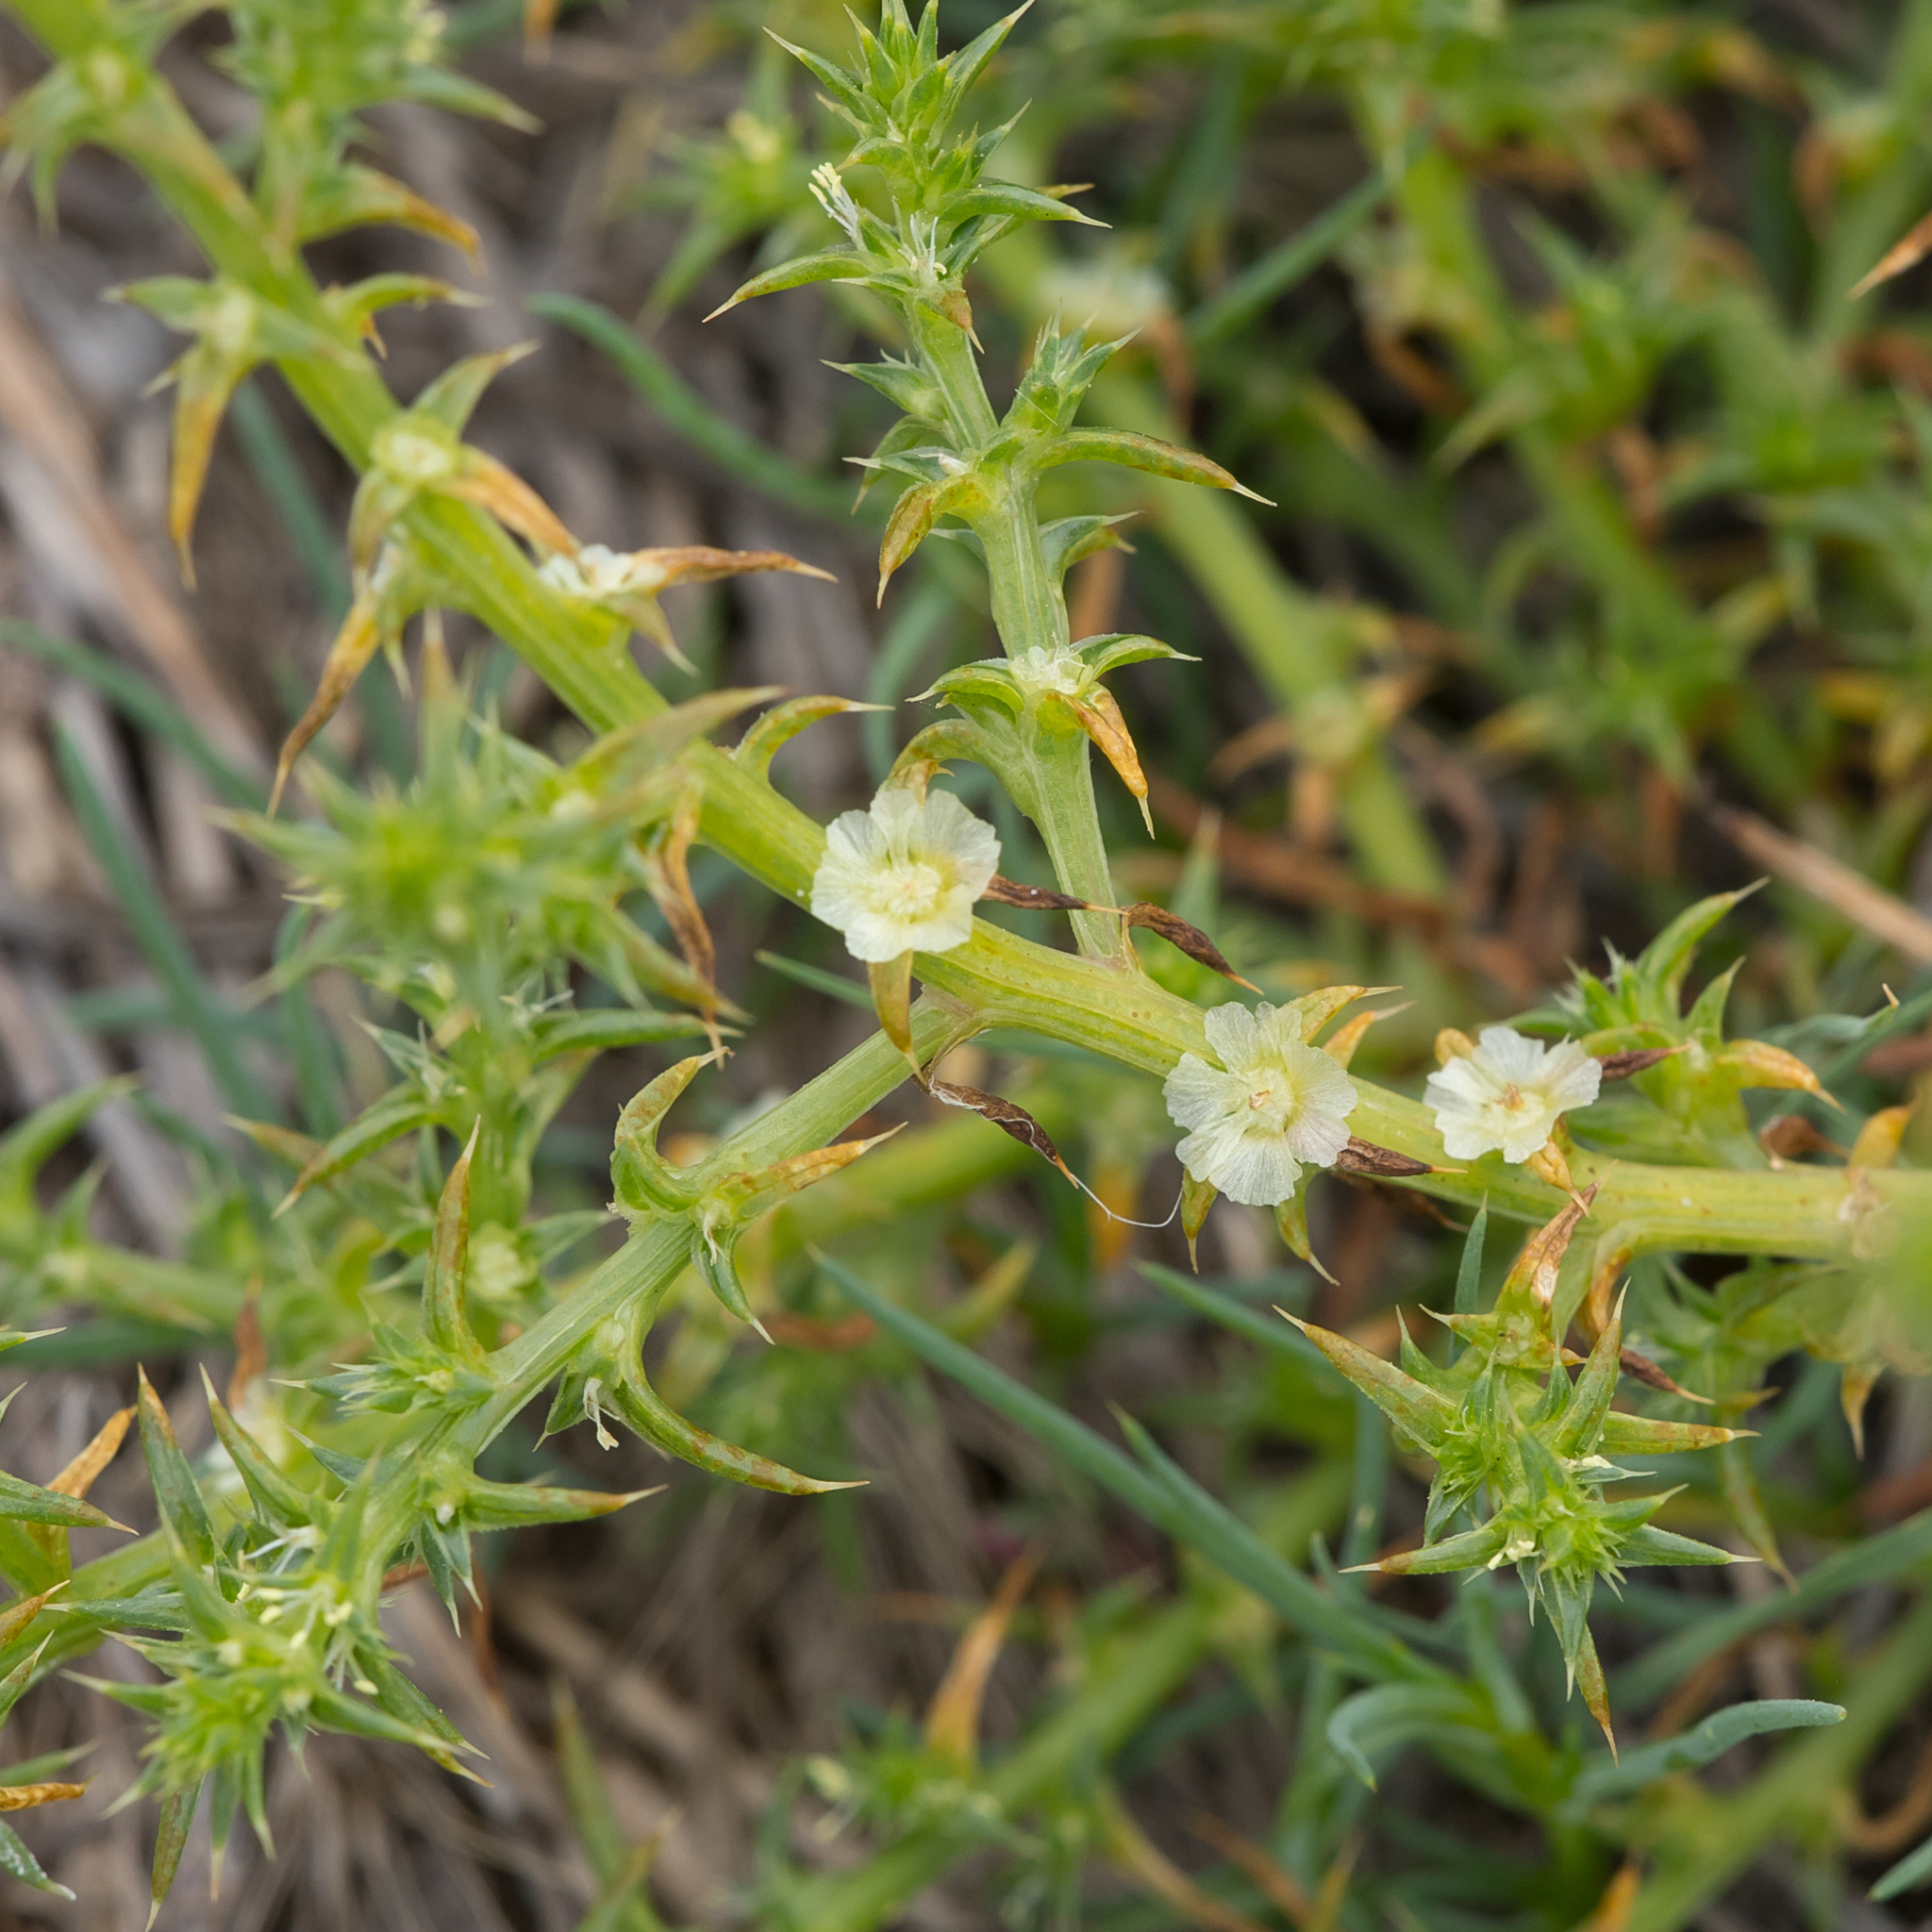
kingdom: Plantae
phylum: Tracheophyta
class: Magnoliopsida
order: Caryophyllales
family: Amaranthaceae
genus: Salsola
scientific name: Salsola australis
